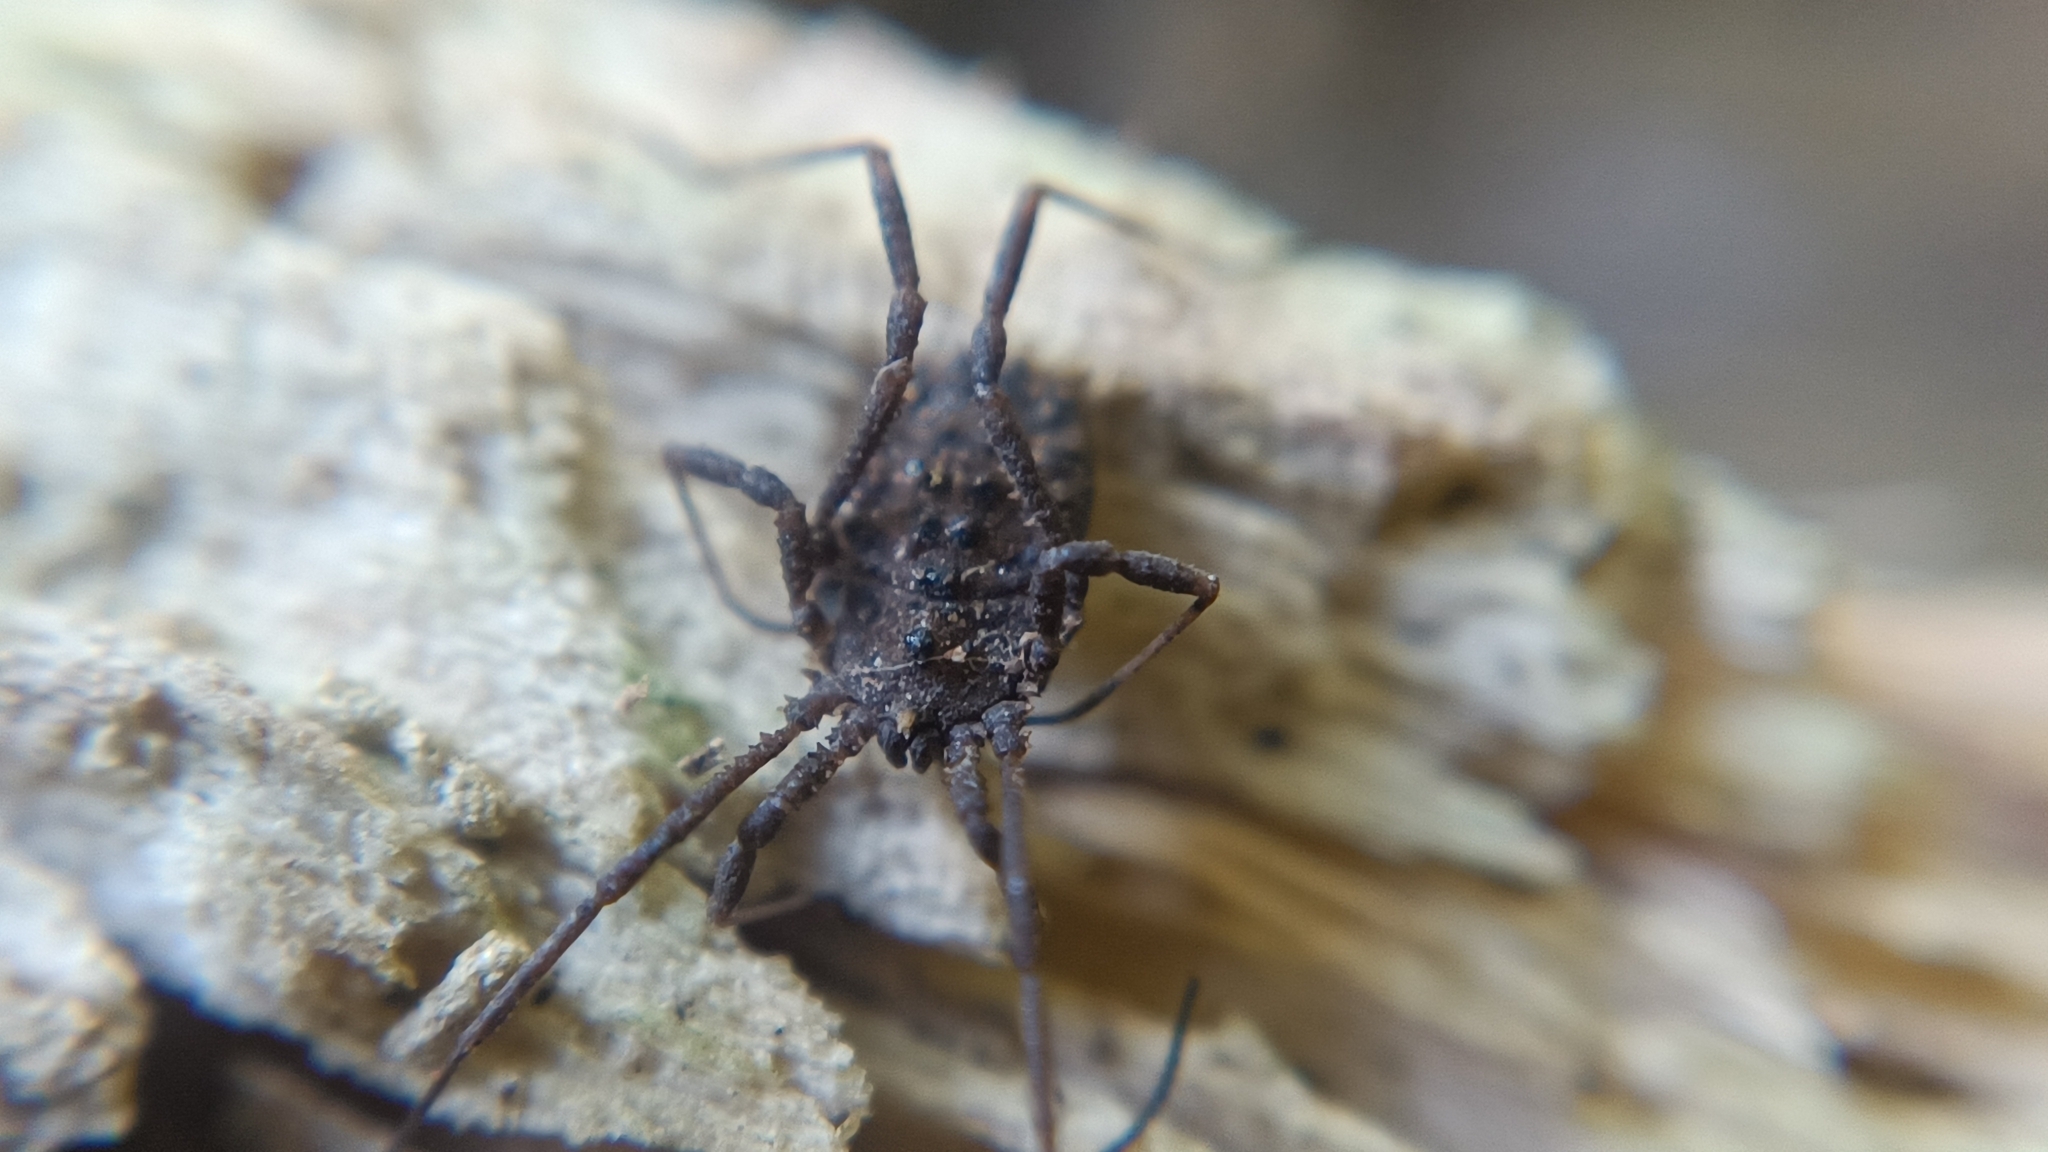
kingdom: Animalia
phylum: Arthropoda
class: Arachnida
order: Opiliones
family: Sclerosomatidae
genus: Homalenotus
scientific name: Homalenotus quadridentatus
